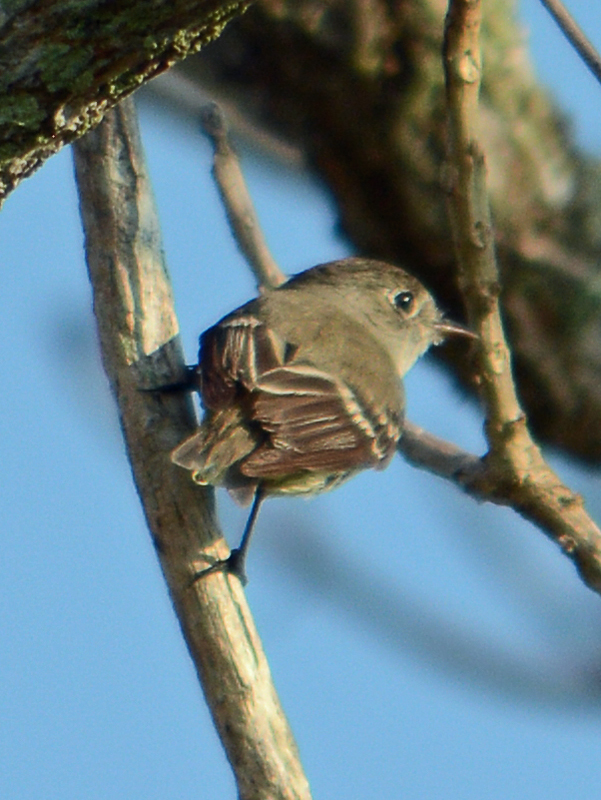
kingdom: Animalia
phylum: Chordata
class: Aves
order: Passeriformes
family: Tyrannidae
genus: Empidonax
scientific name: Empidonax hammondii
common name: Hammond's flycatcher
